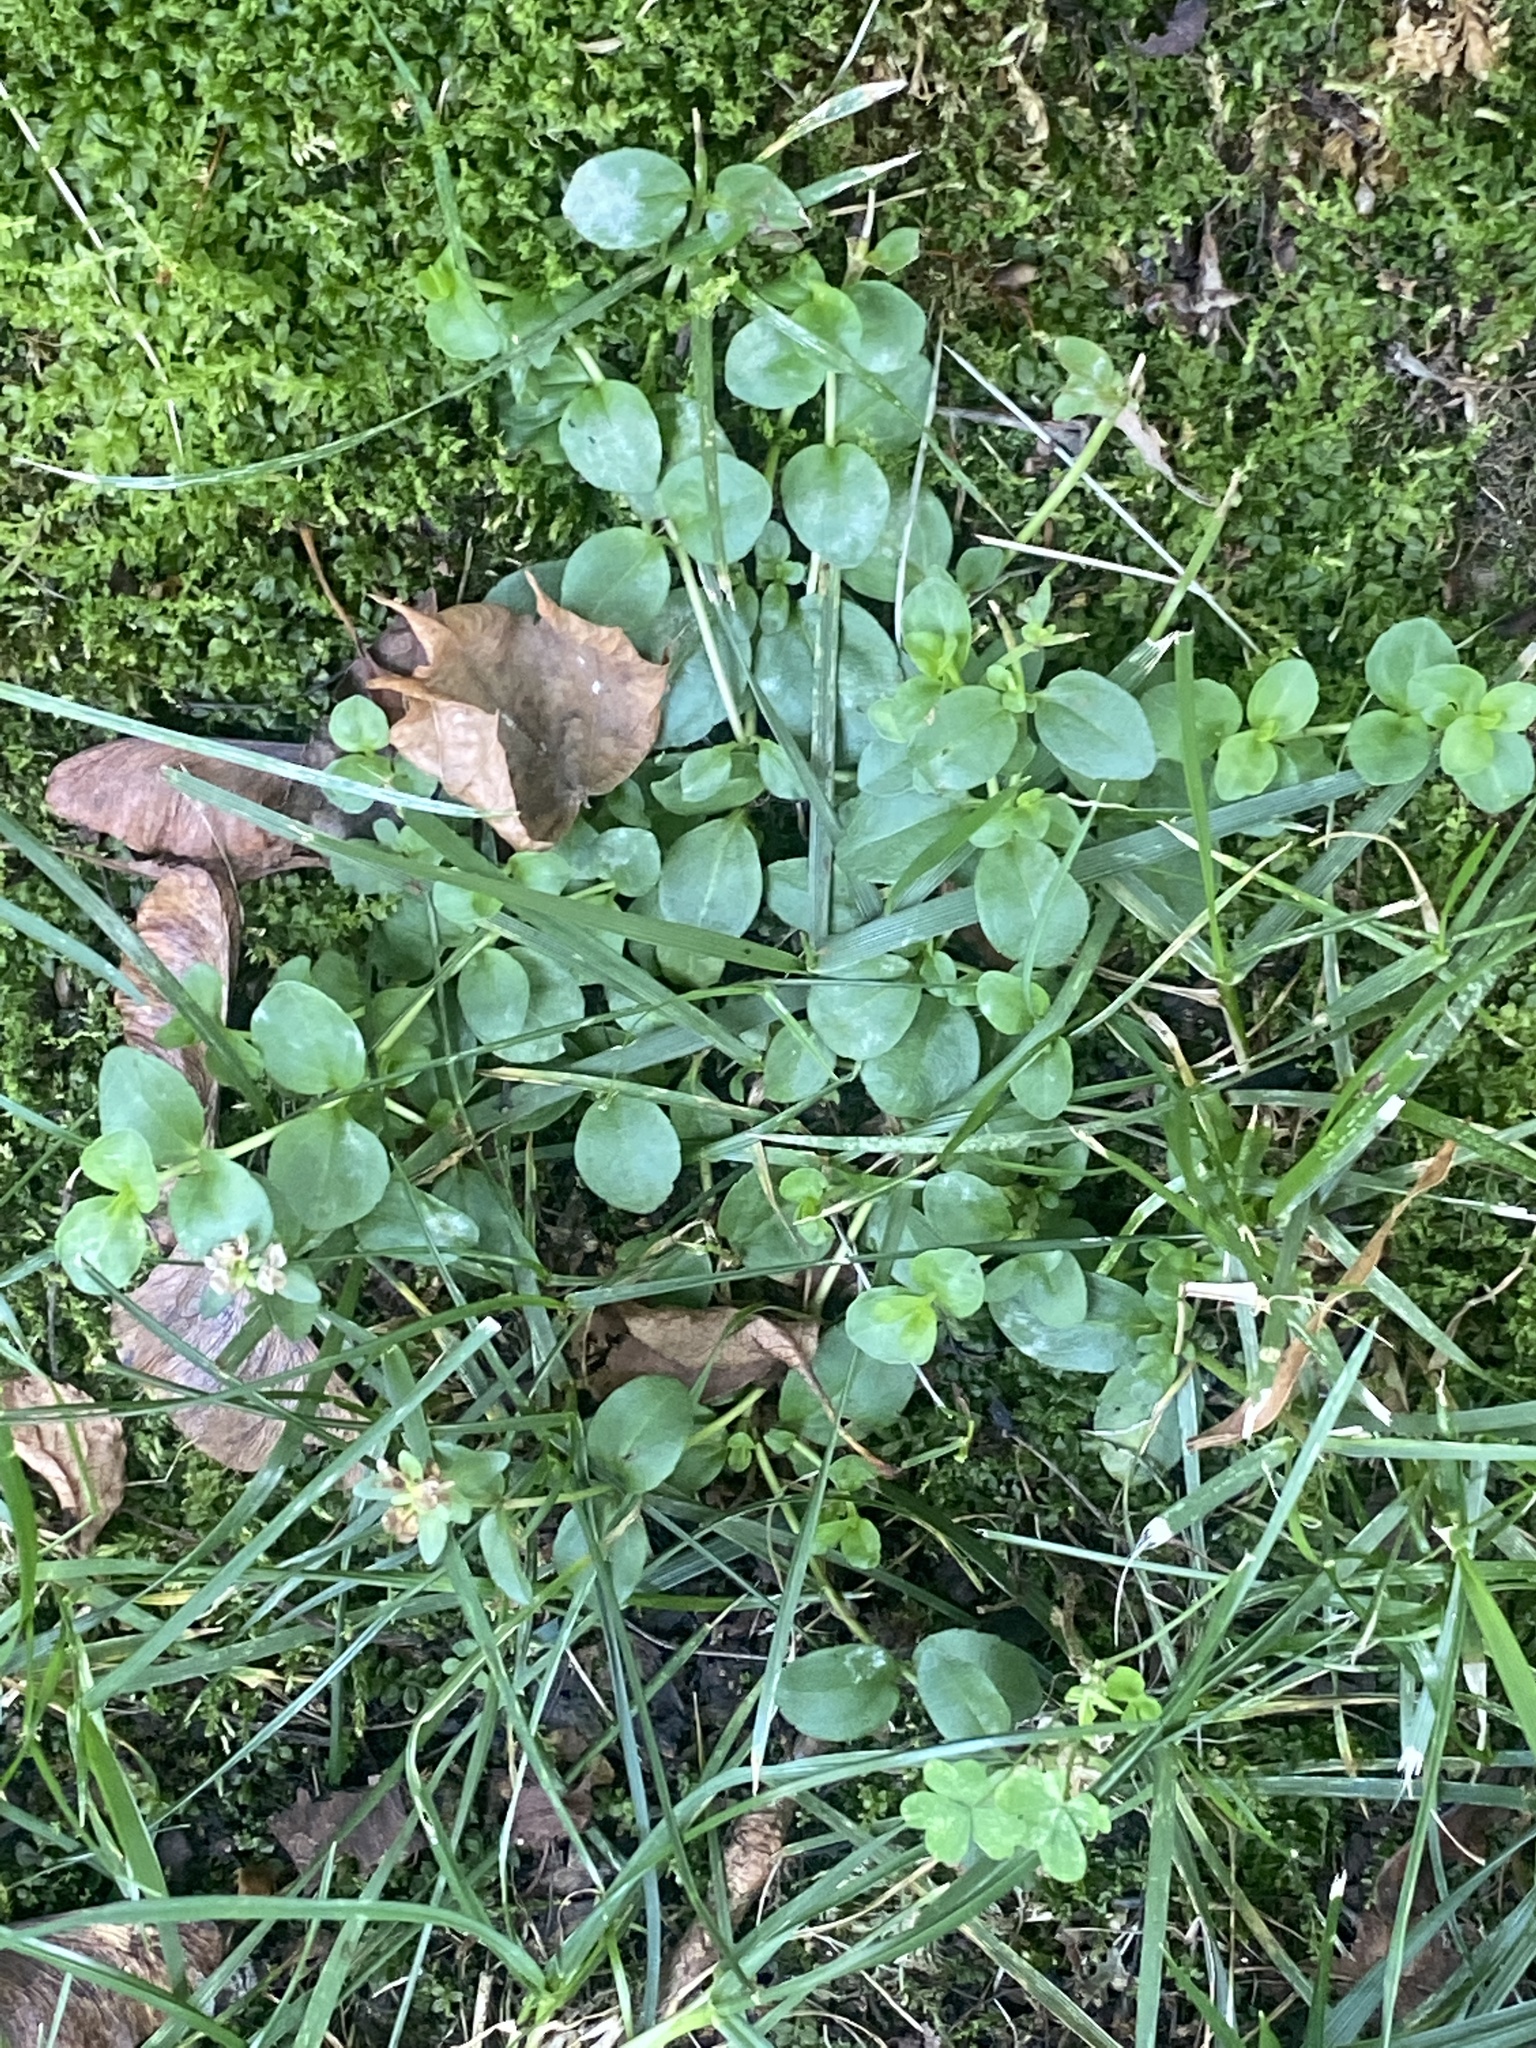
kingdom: Plantae
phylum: Tracheophyta
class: Magnoliopsida
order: Lamiales
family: Plantaginaceae
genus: Veronica
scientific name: Veronica serpyllifolia
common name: Thyme-leaved speedwell
